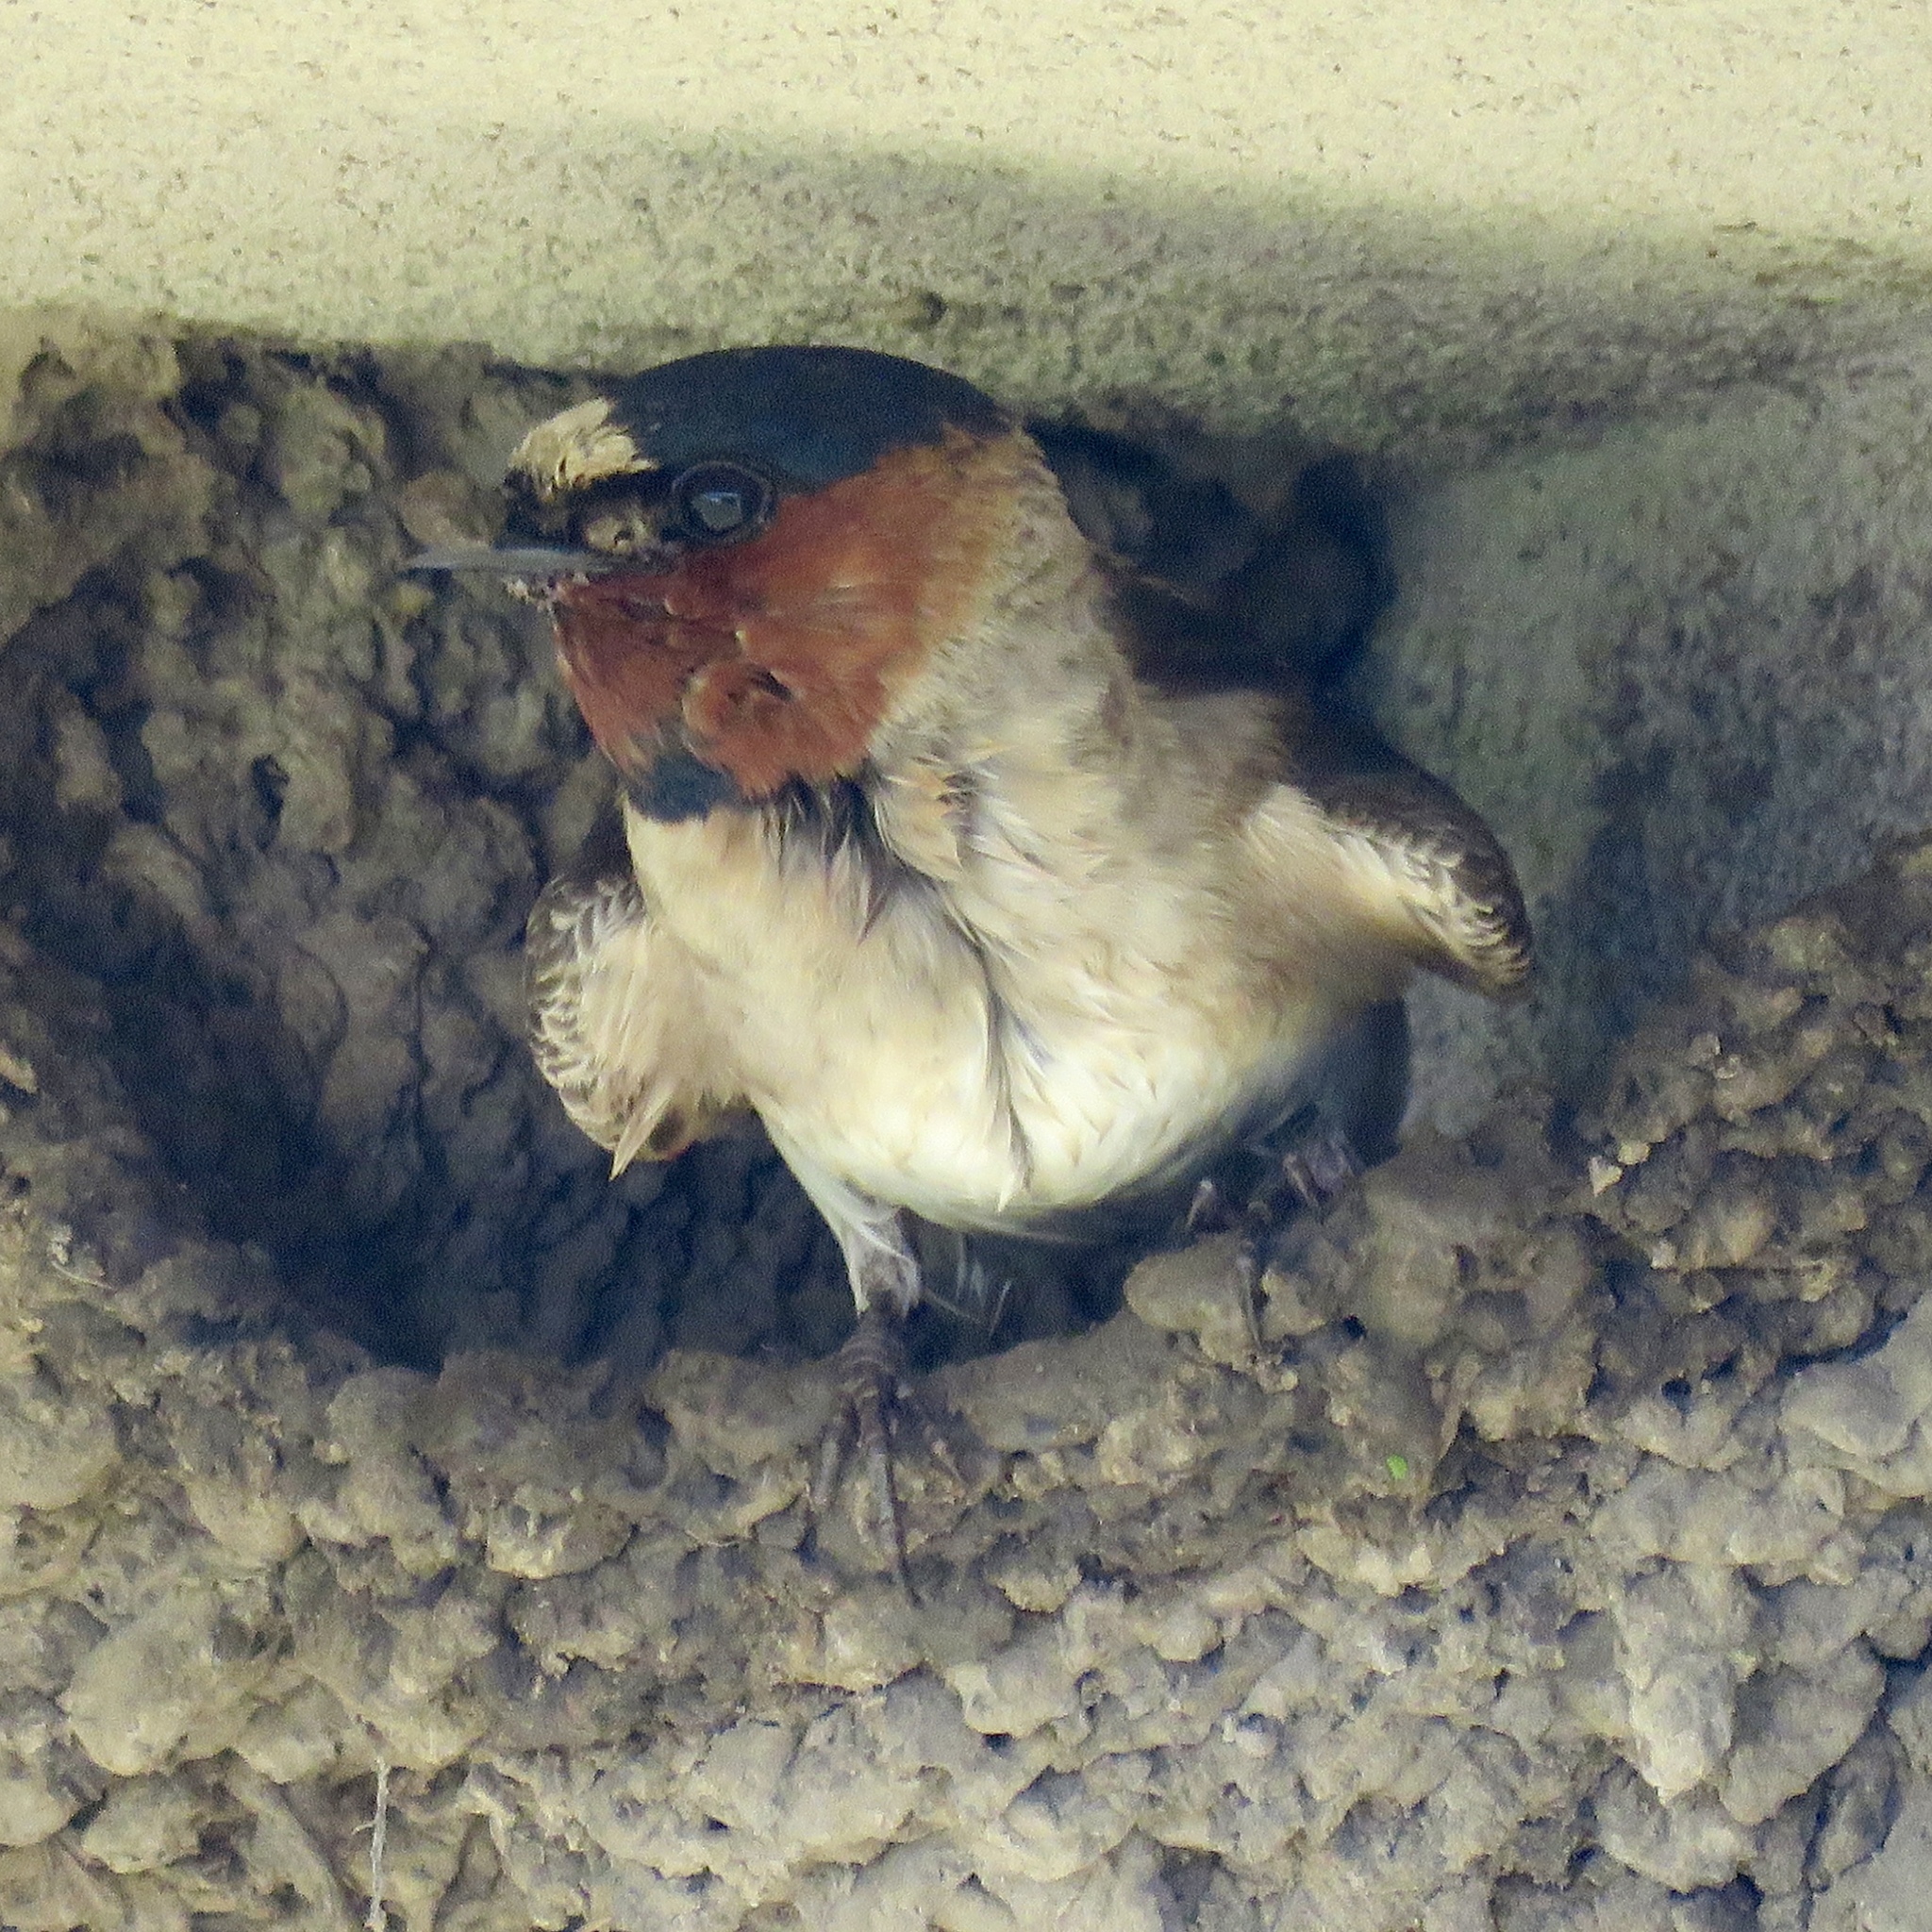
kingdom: Animalia
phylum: Chordata
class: Aves
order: Passeriformes
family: Hirundinidae
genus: Petrochelidon
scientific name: Petrochelidon pyrrhonota
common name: American cliff swallow
